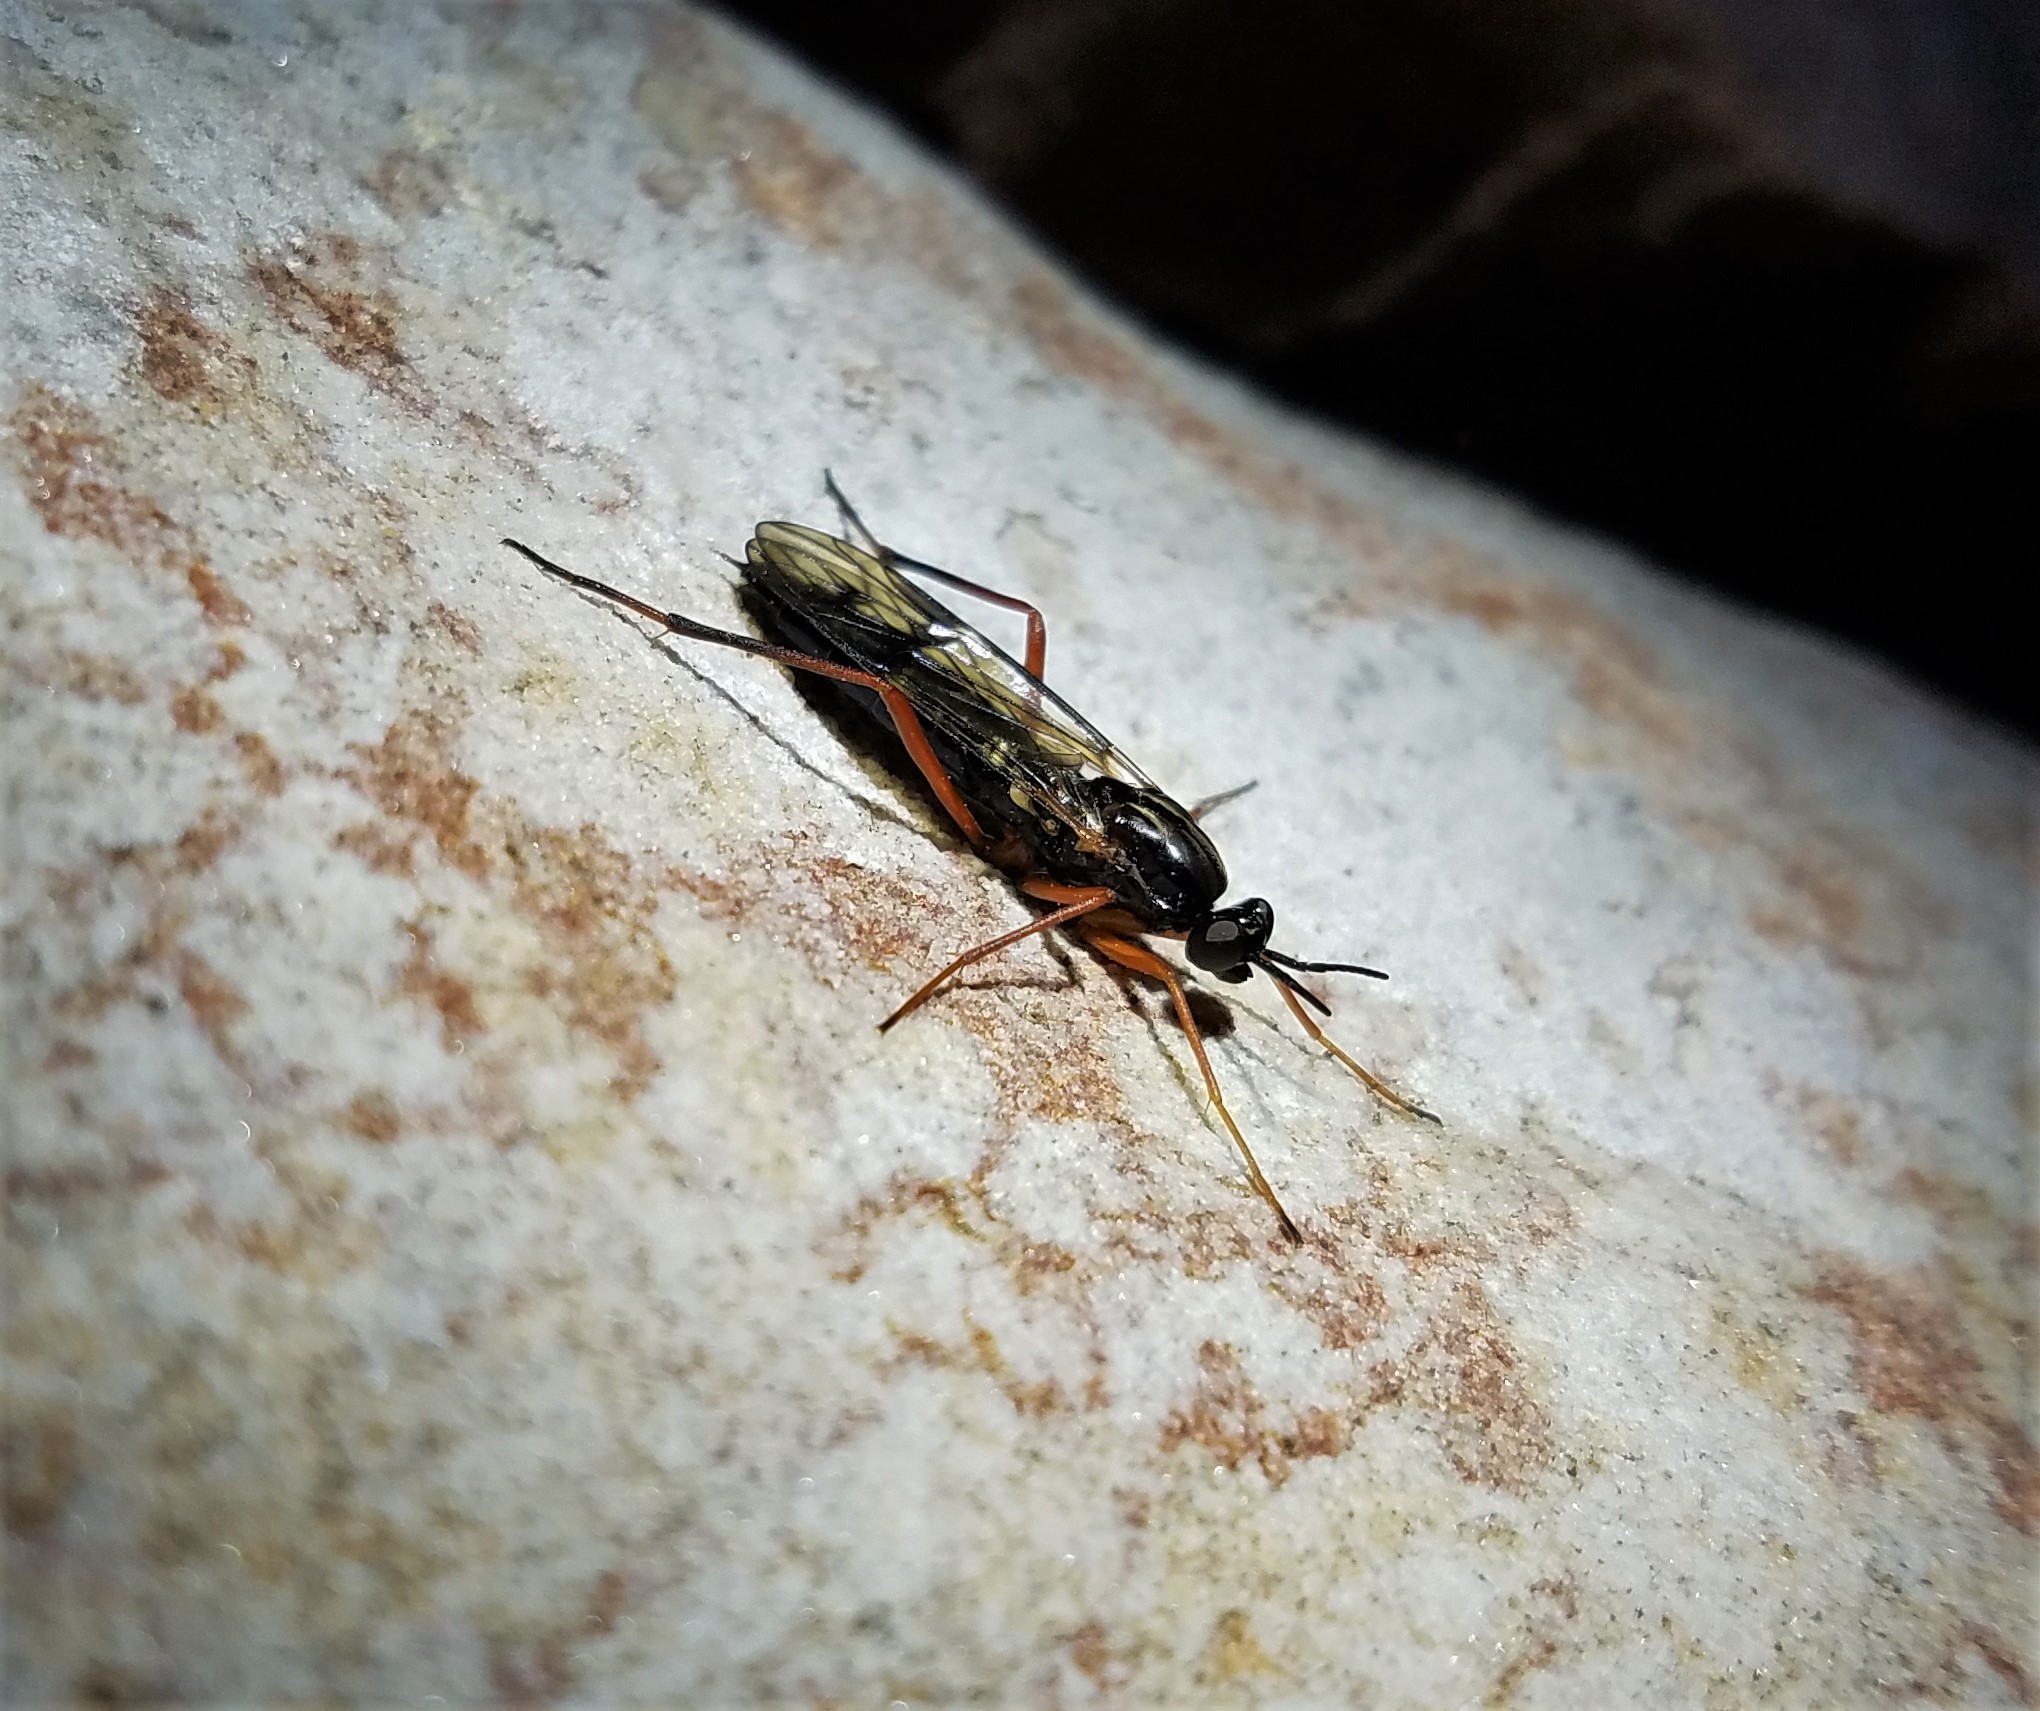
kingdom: Animalia
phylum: Arthropoda
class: Insecta
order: Diptera
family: Xylophagidae
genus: Xylophagus
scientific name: Xylophagus fulgidus
